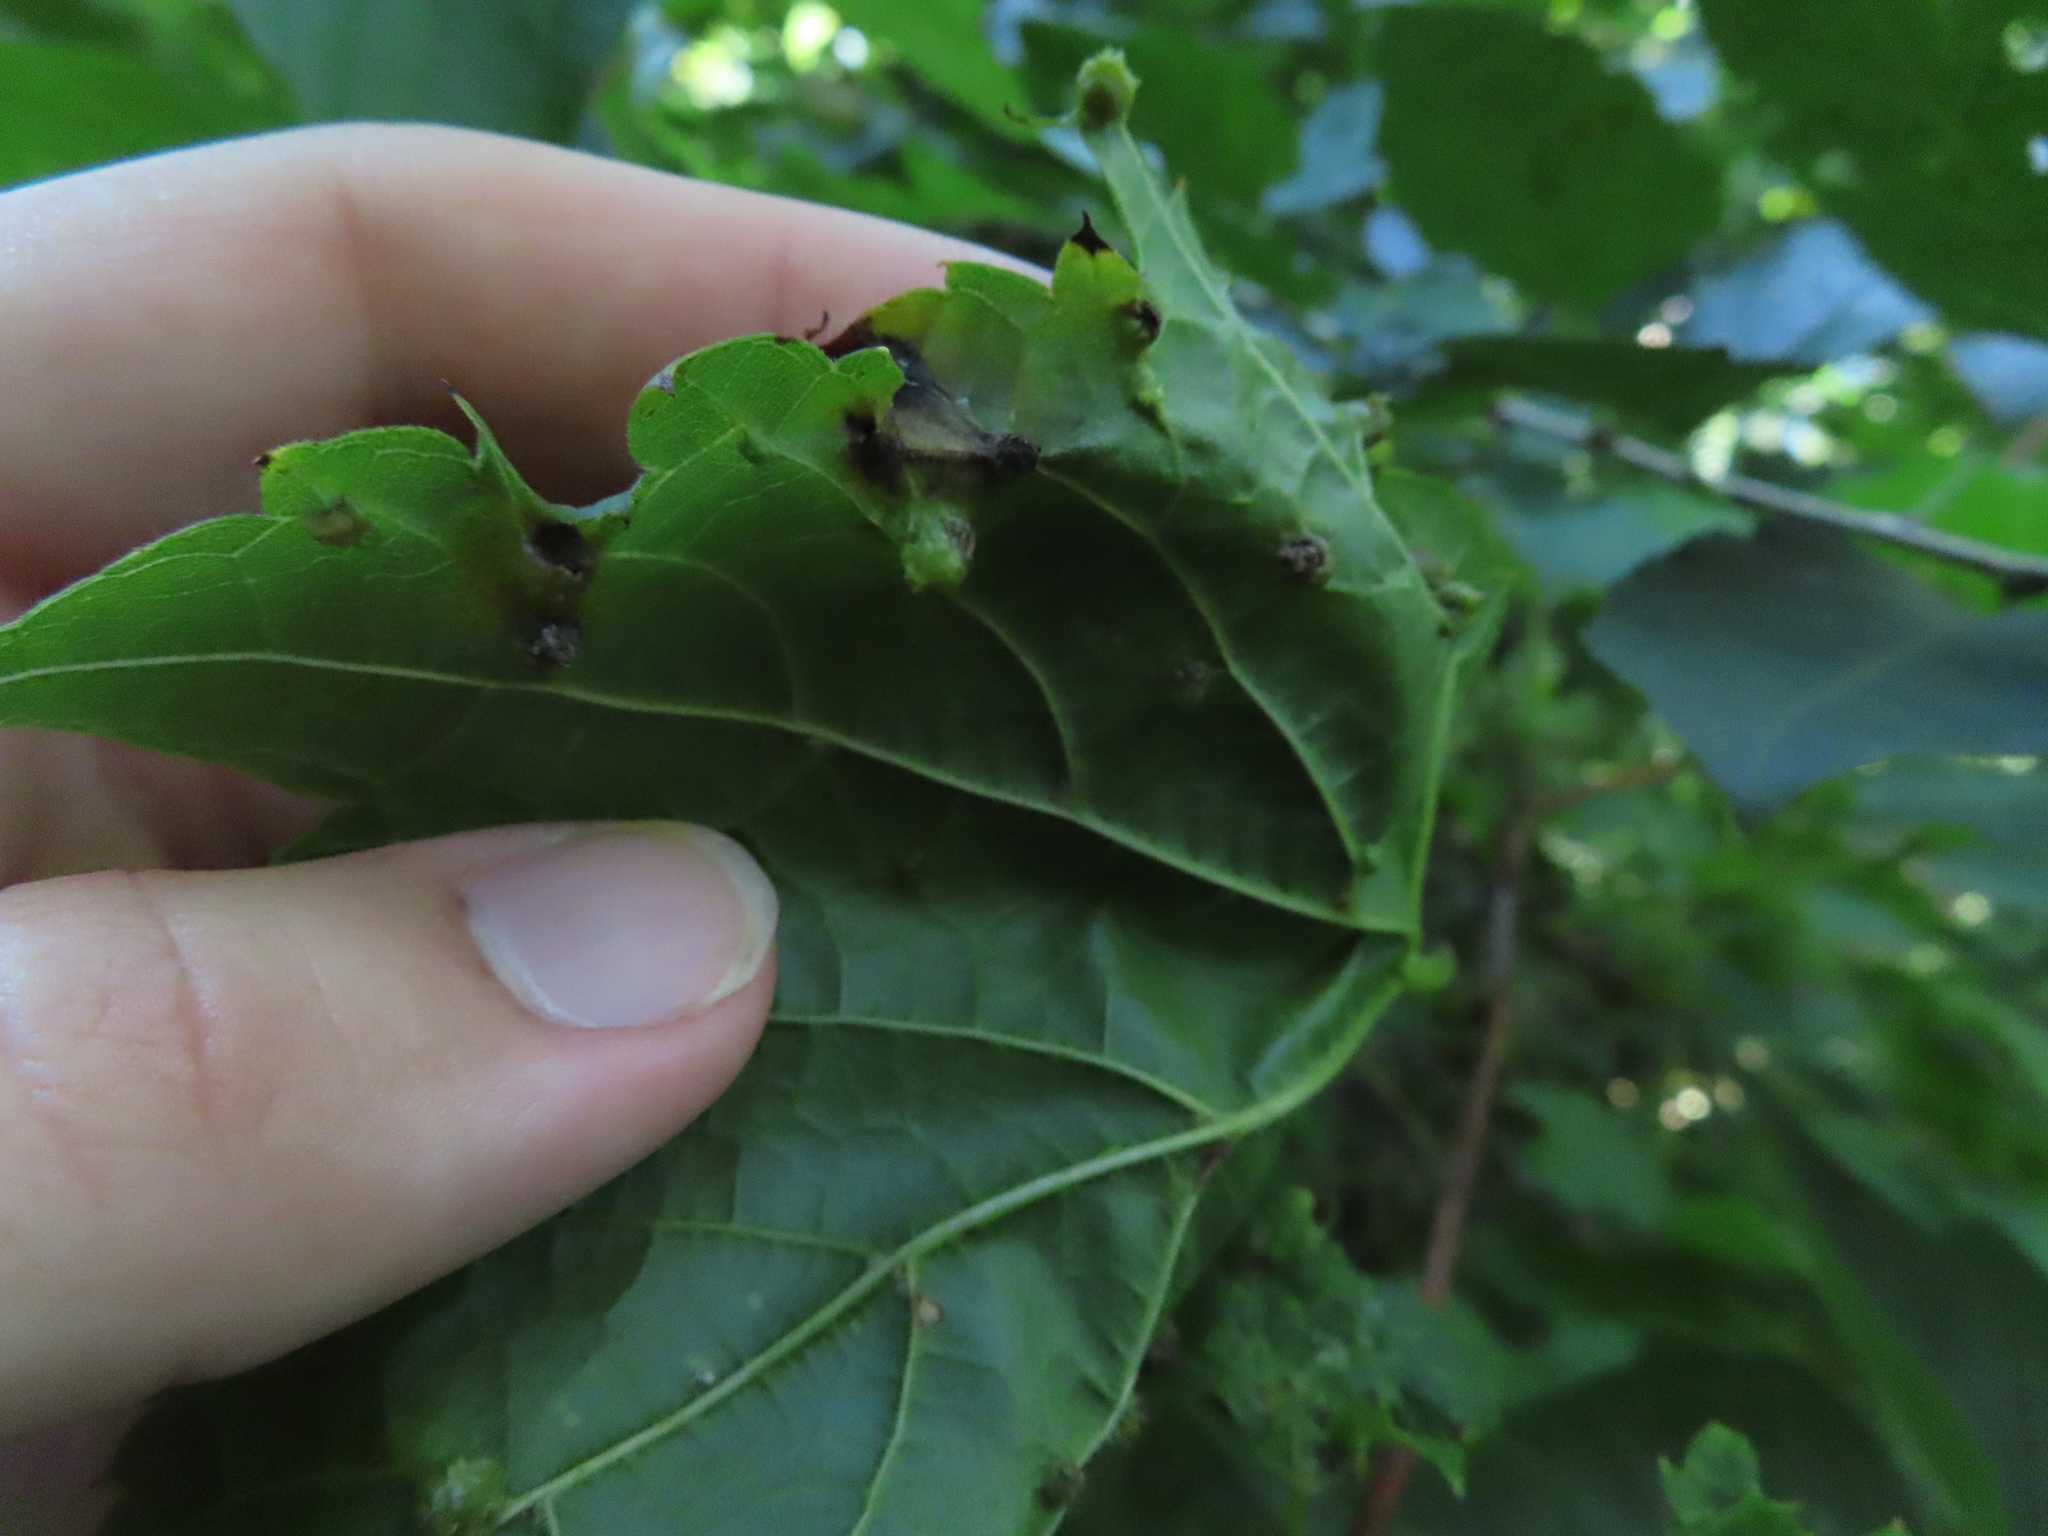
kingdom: Animalia
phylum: Arthropoda
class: Insecta
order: Hemiptera
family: Phylloxeridae
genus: Daktulosphaira
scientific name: Daktulosphaira vitifoliae
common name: Grape phylloxera
